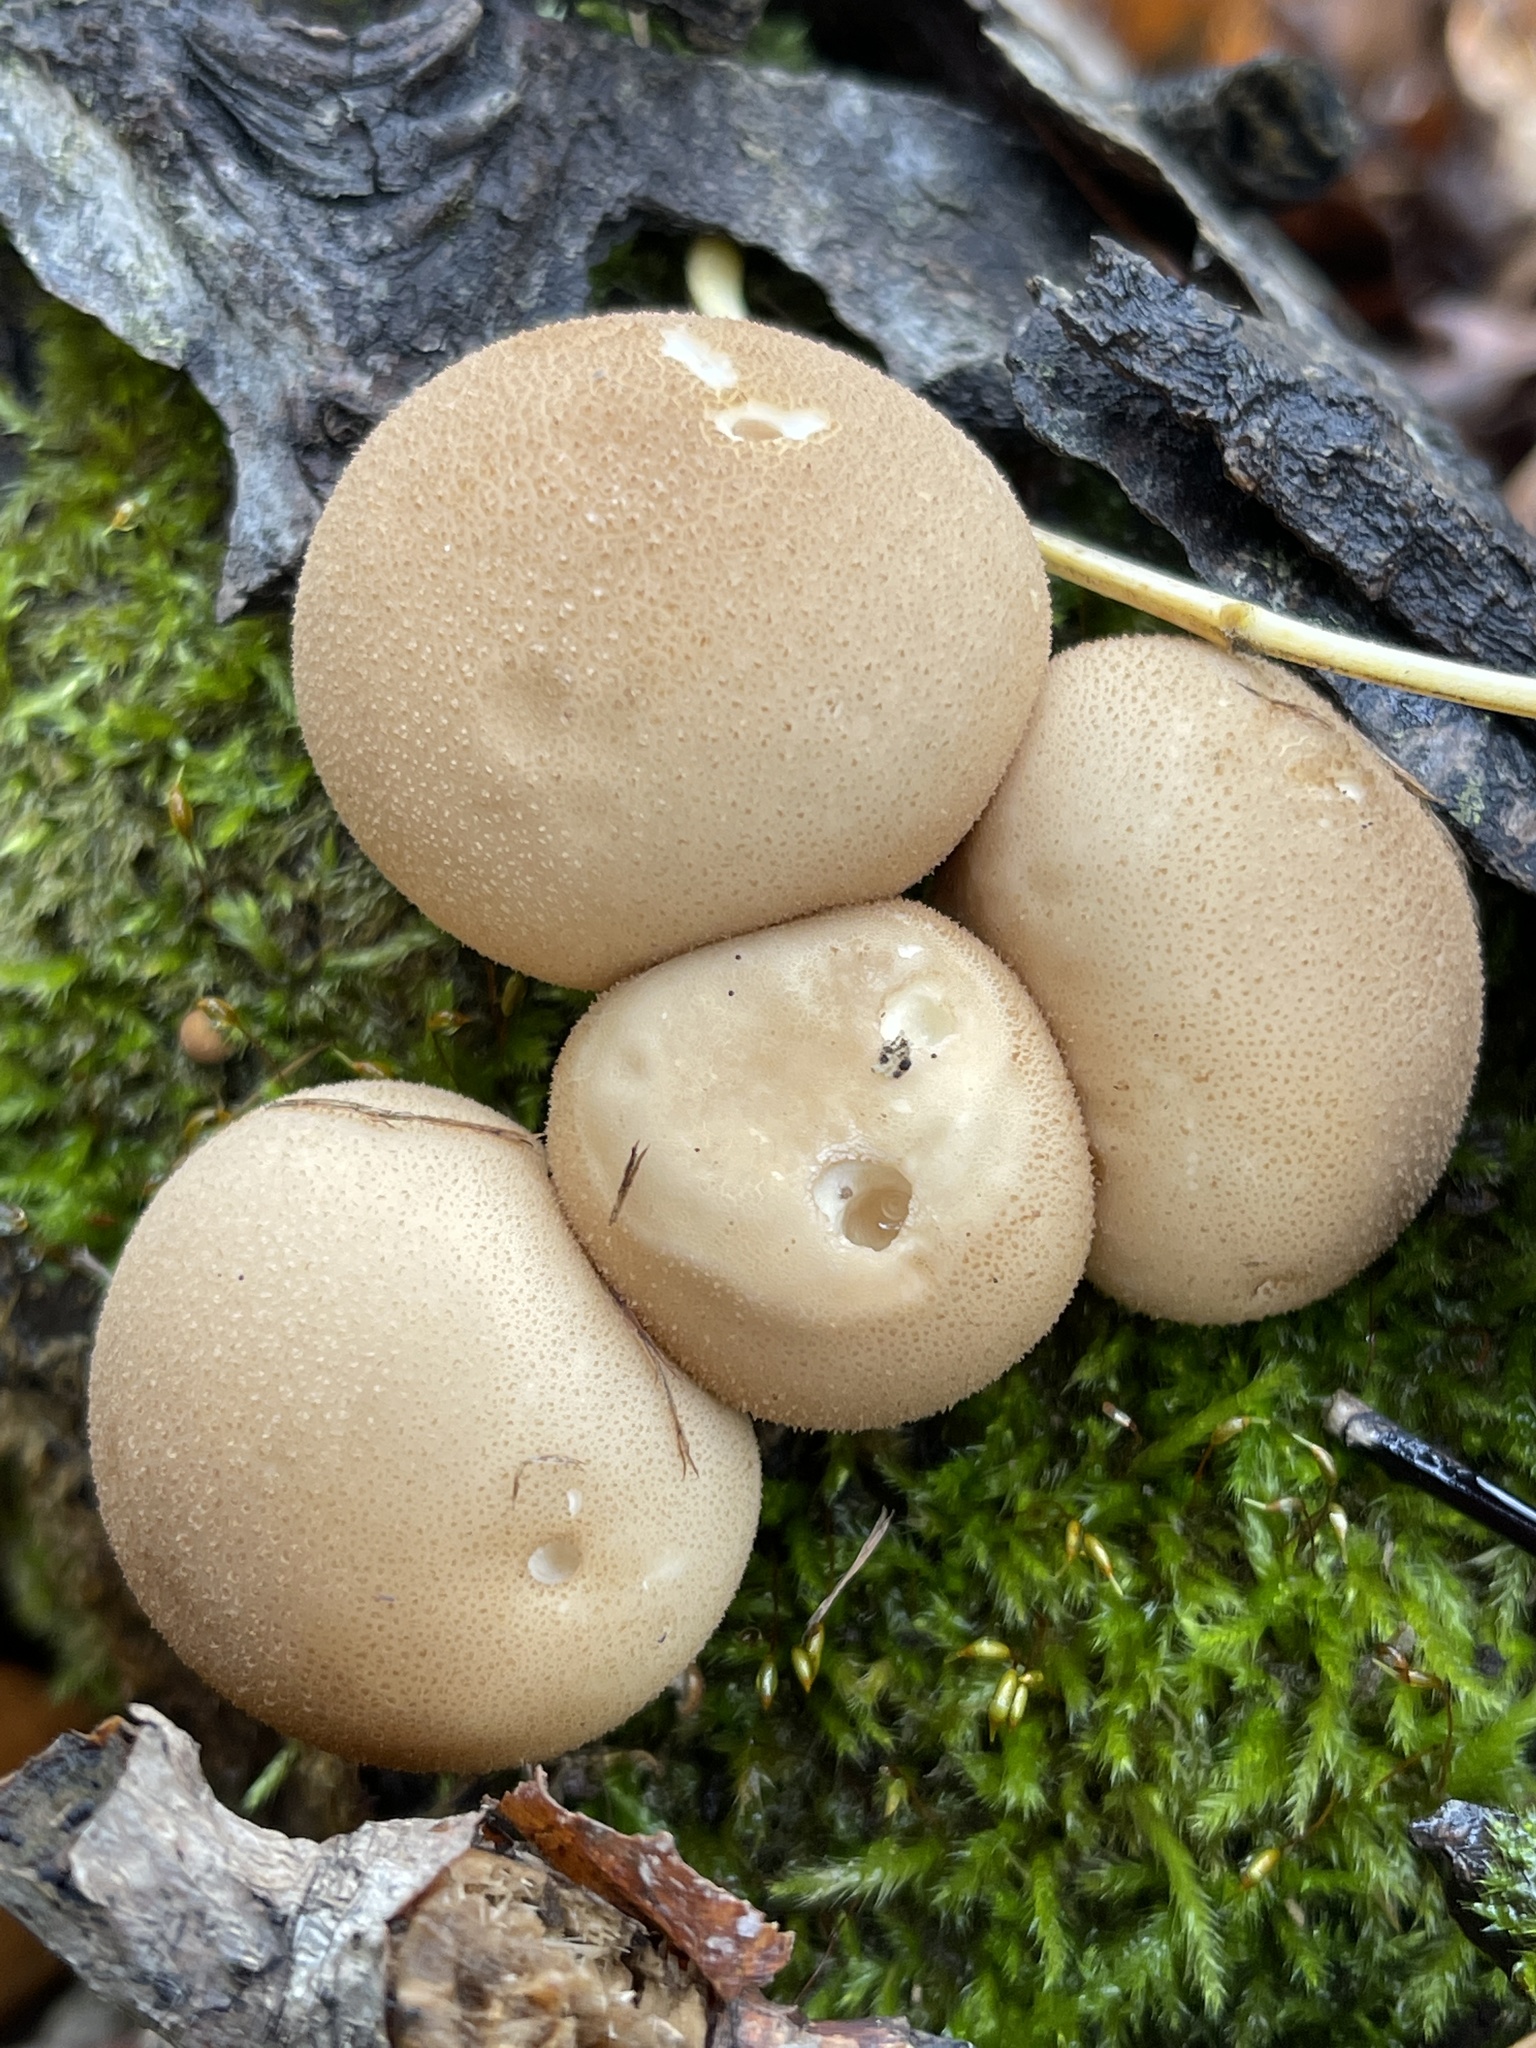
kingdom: Fungi
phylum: Basidiomycota
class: Agaricomycetes
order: Agaricales
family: Lycoperdaceae
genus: Apioperdon
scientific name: Apioperdon pyriforme
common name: Pear-shaped puffball
